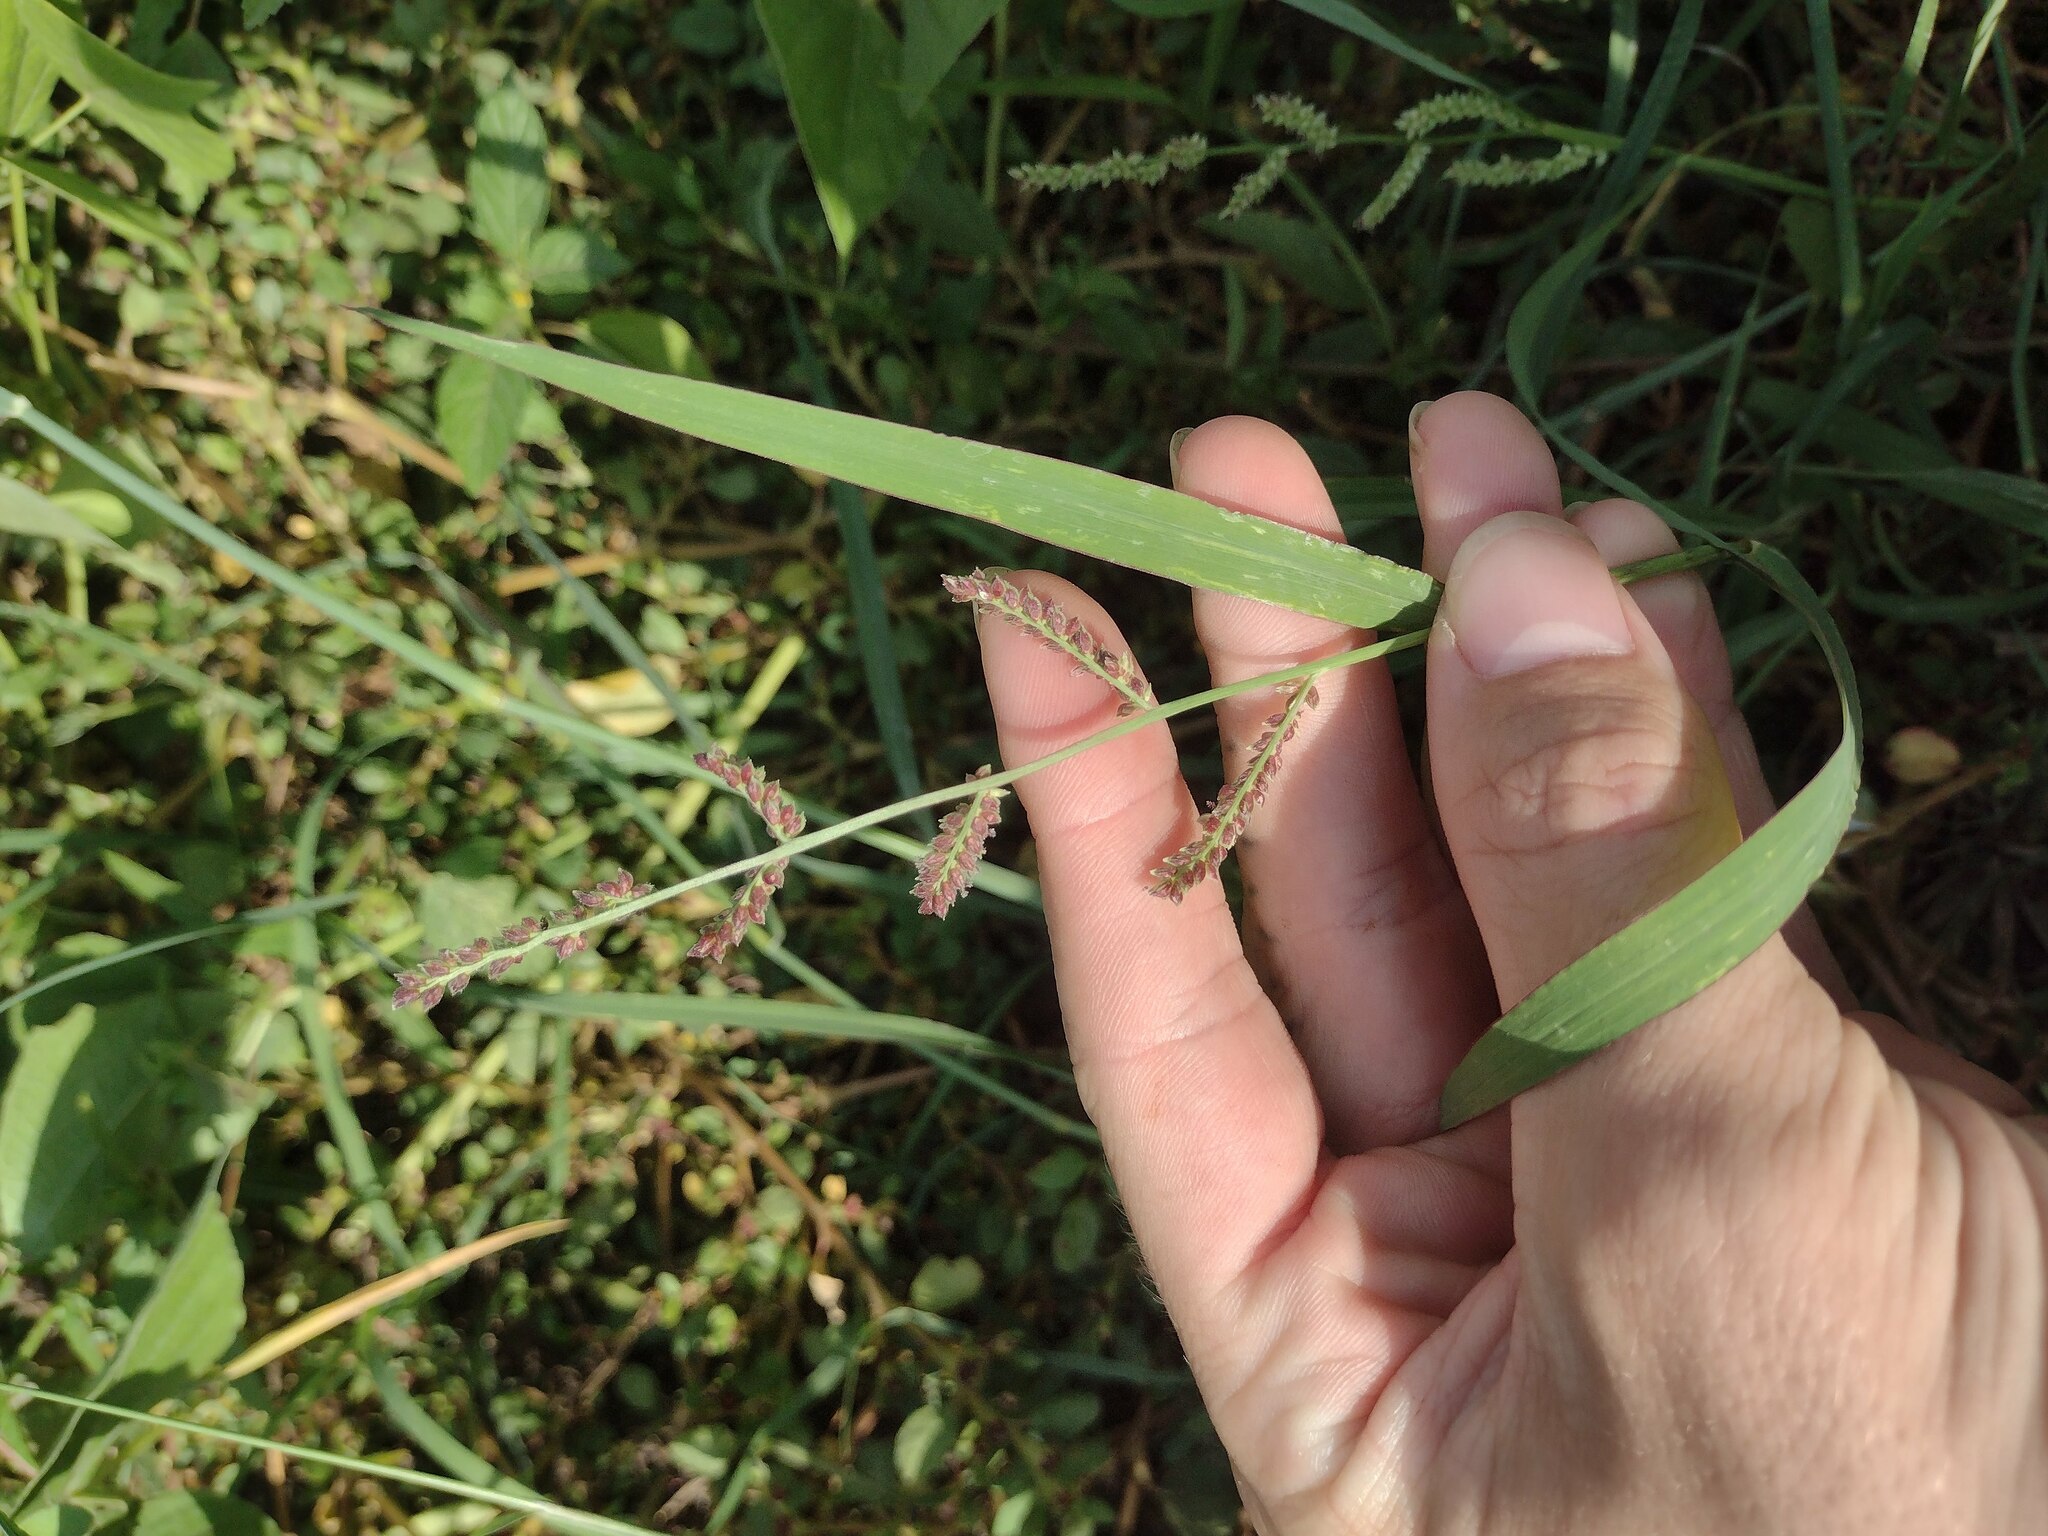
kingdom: Plantae
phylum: Tracheophyta
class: Liliopsida
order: Poales
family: Poaceae
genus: Echinochloa
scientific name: Echinochloa colonum
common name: Jungle rice
